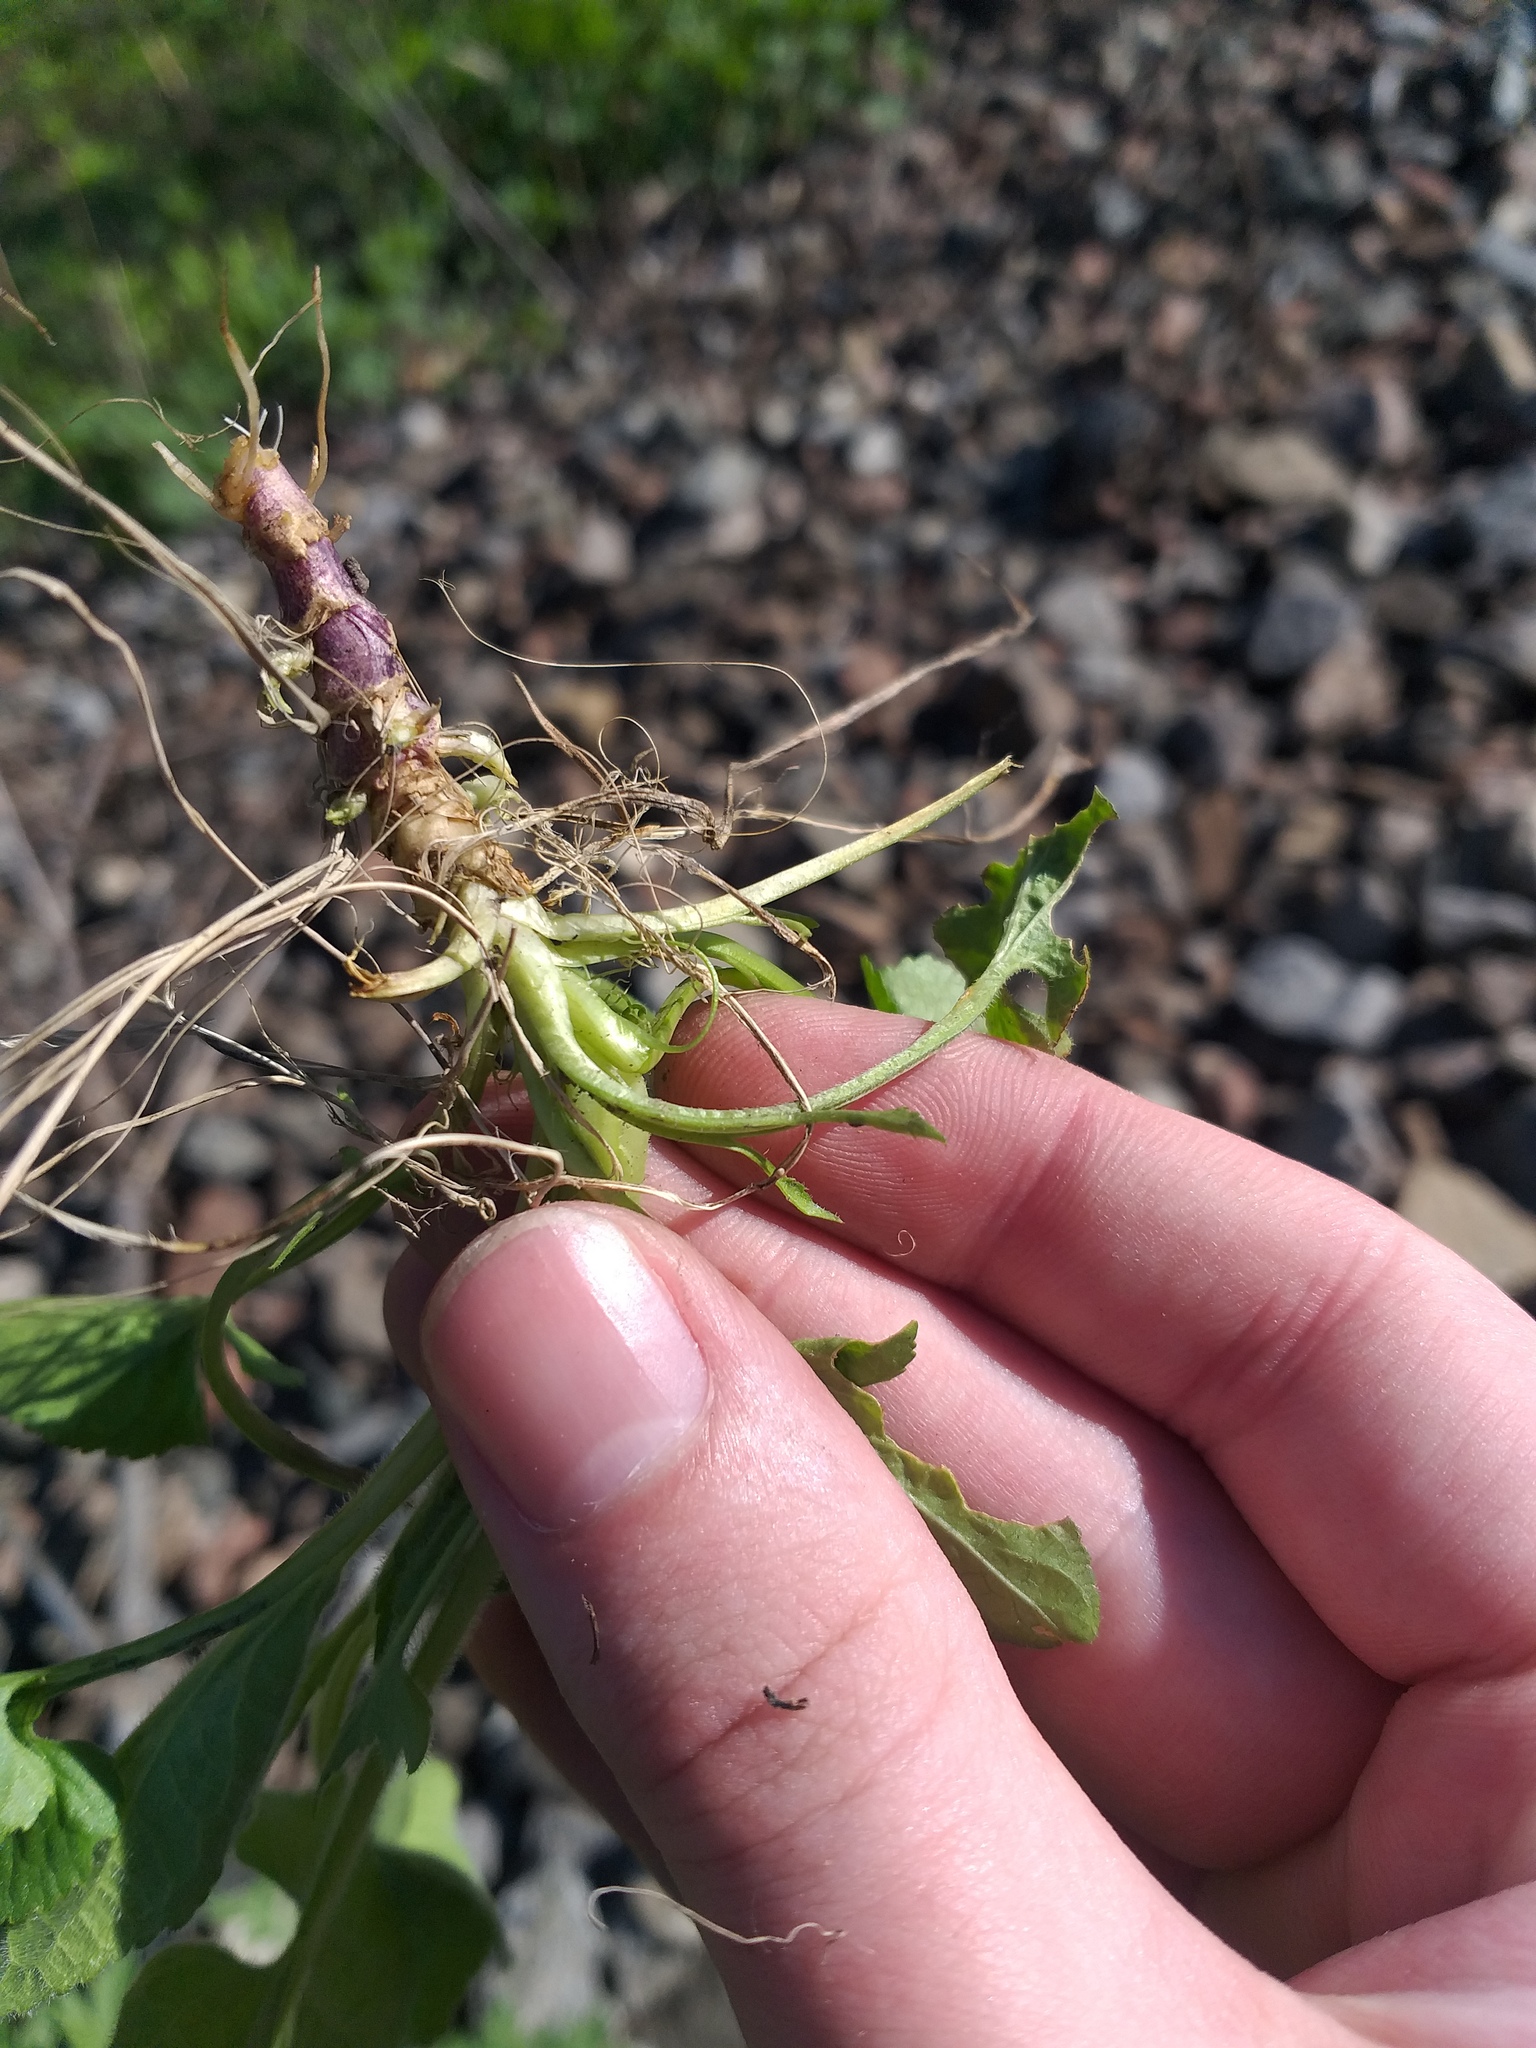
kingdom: Plantae
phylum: Tracheophyta
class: Magnoliopsida
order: Malpighiales
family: Violaceae
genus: Viola
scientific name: Viola hirta
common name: Hairy violet
